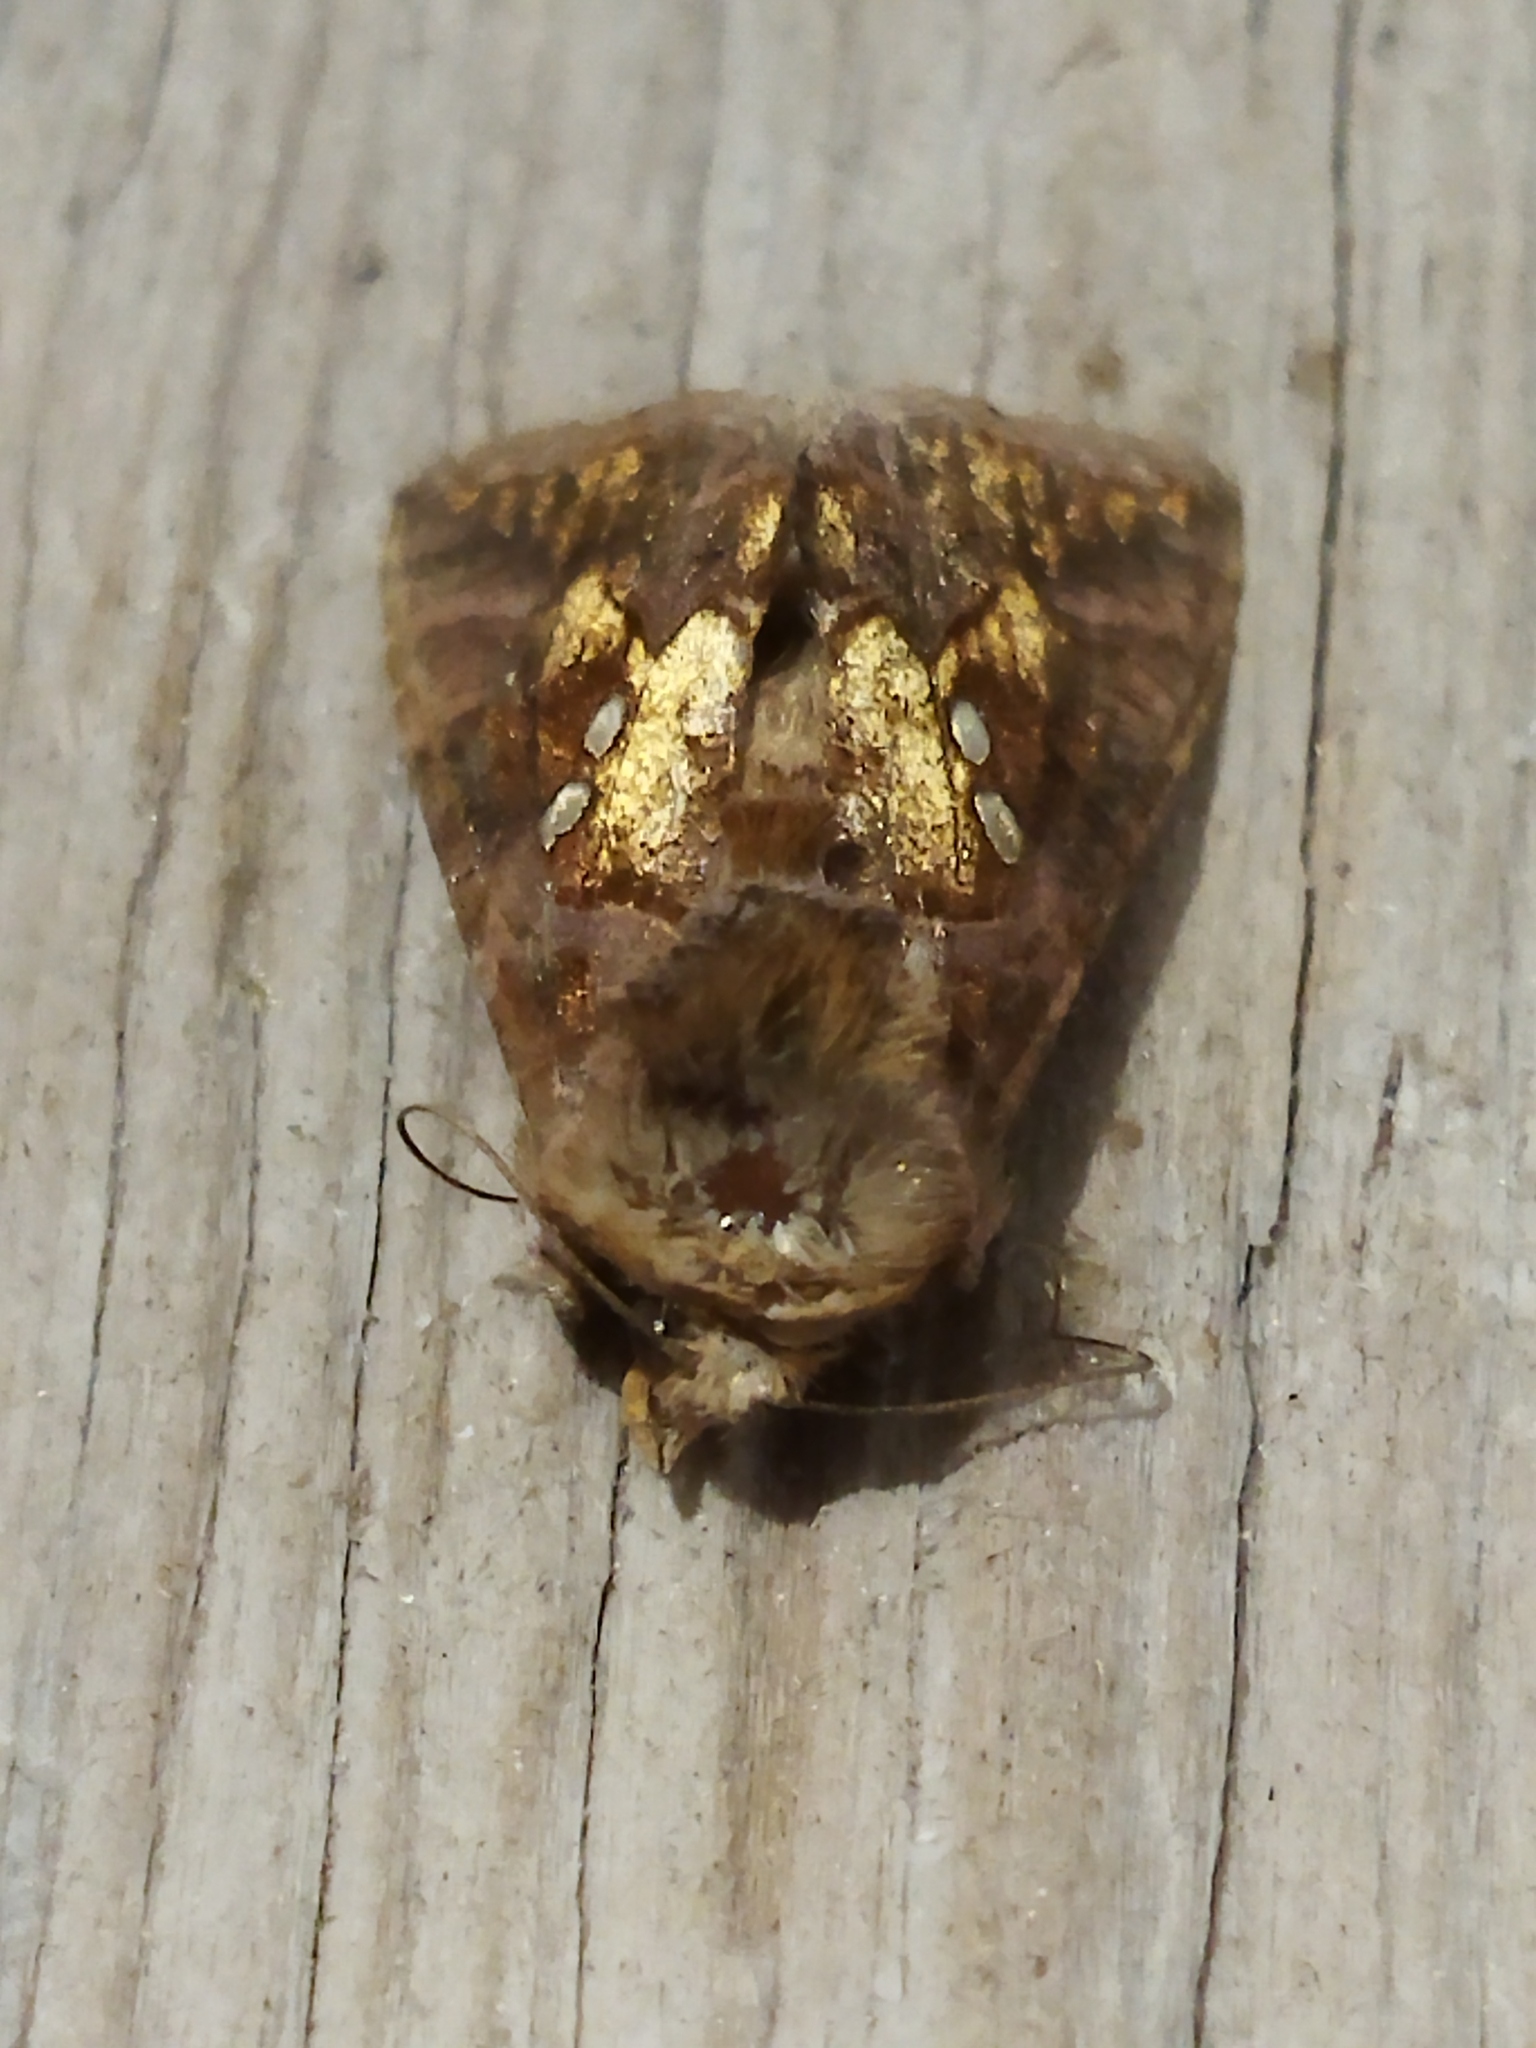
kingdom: Animalia
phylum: Arthropoda
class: Insecta
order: Lepidoptera
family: Noctuidae
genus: Chrysodeixis
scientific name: Chrysodeixis chalcites
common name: Golden twin-spot
